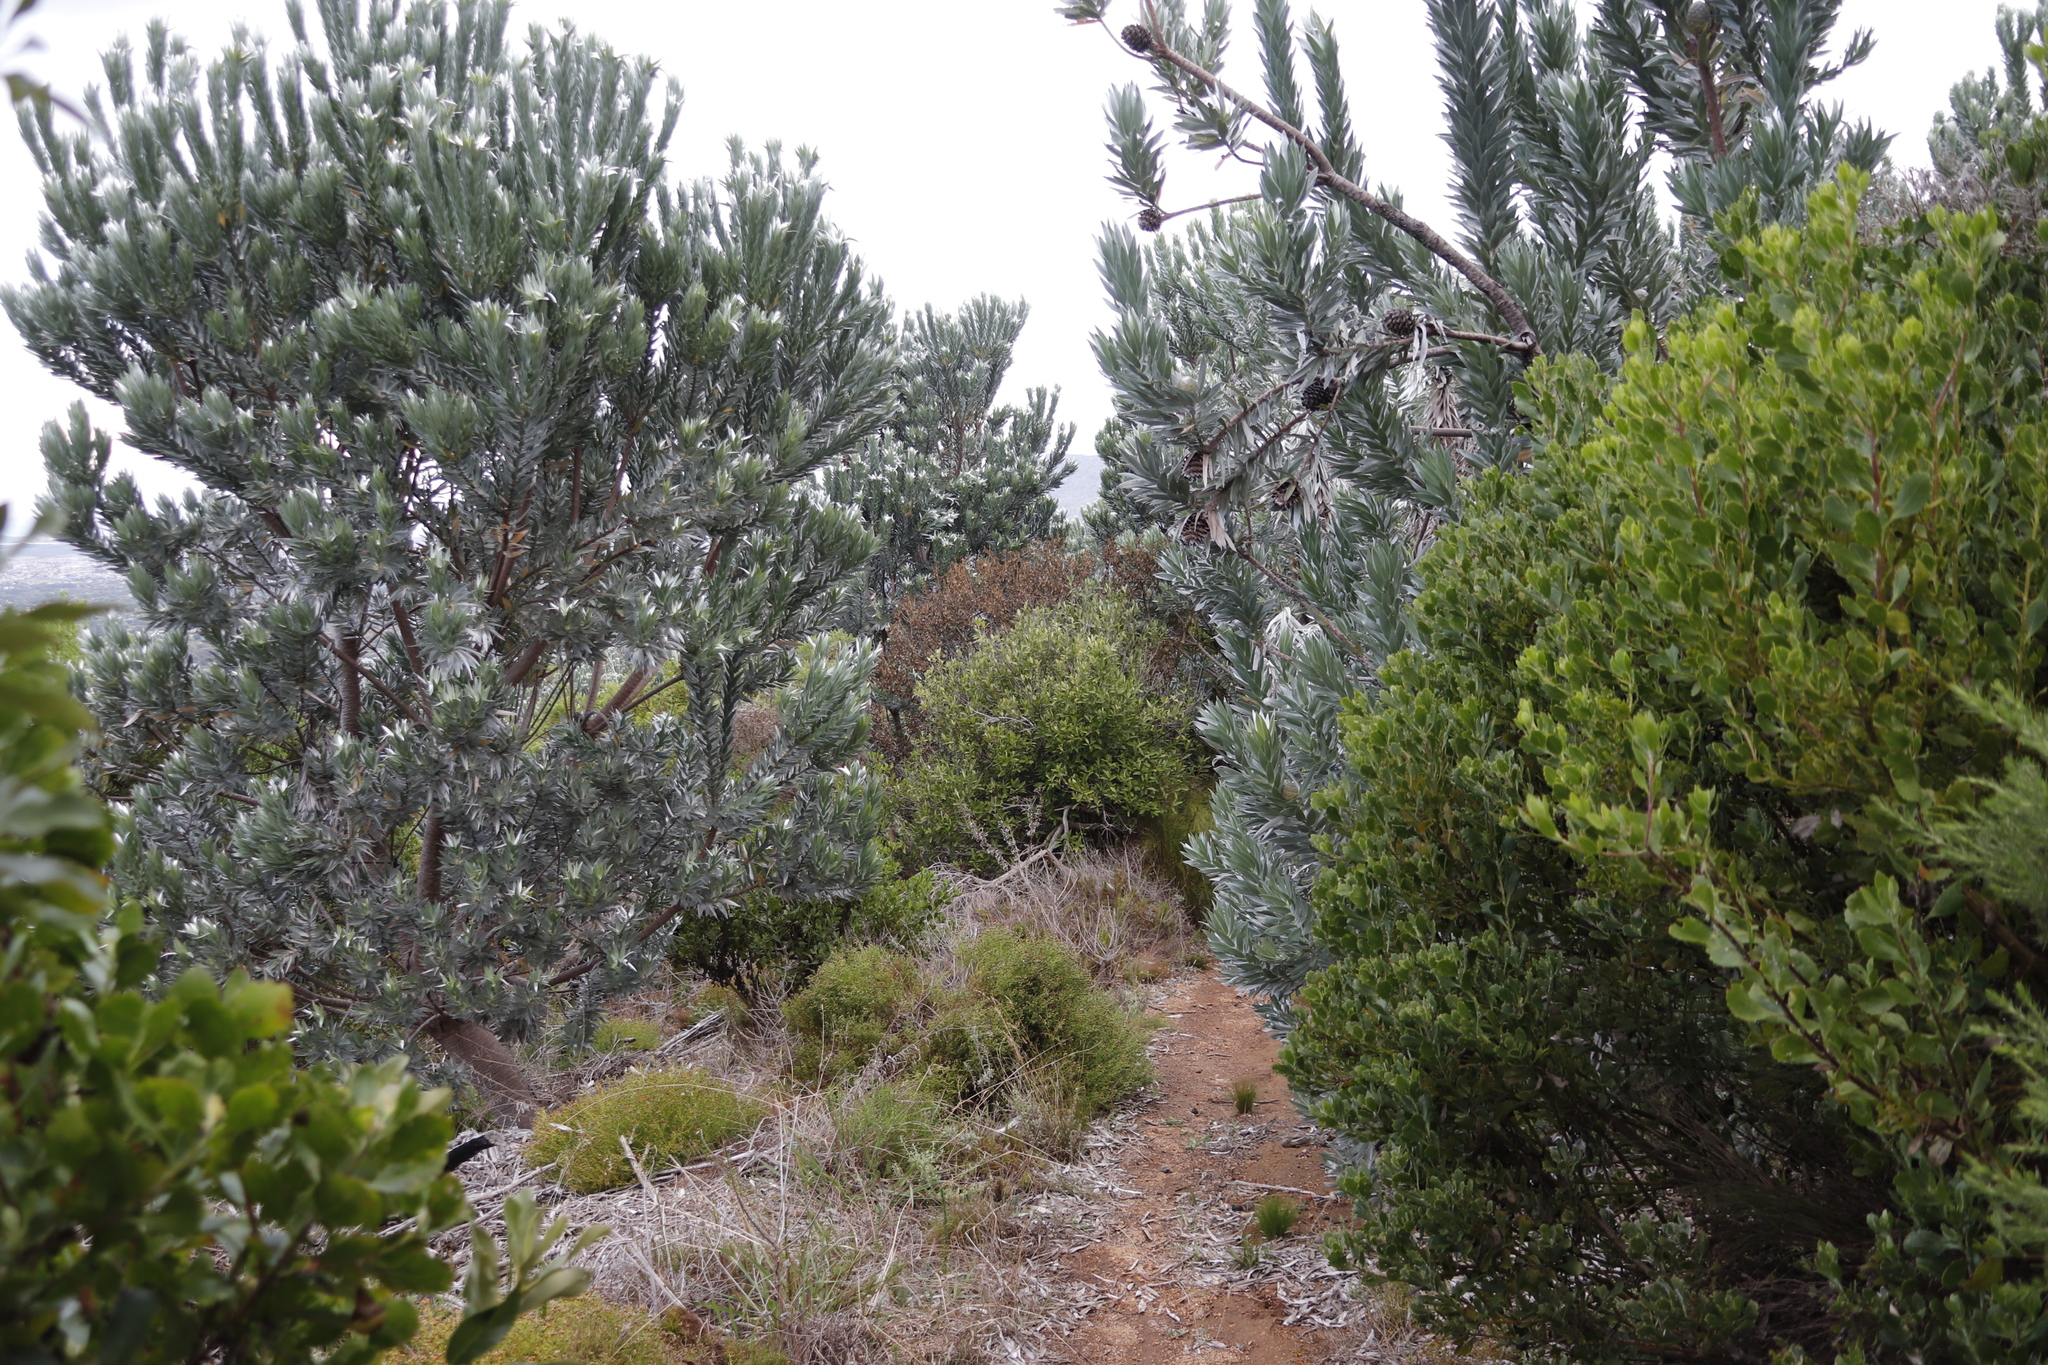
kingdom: Plantae
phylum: Tracheophyta
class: Magnoliopsida
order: Proteales
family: Proteaceae
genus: Leucadendron
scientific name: Leucadendron argenteum
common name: Cape silver tree
